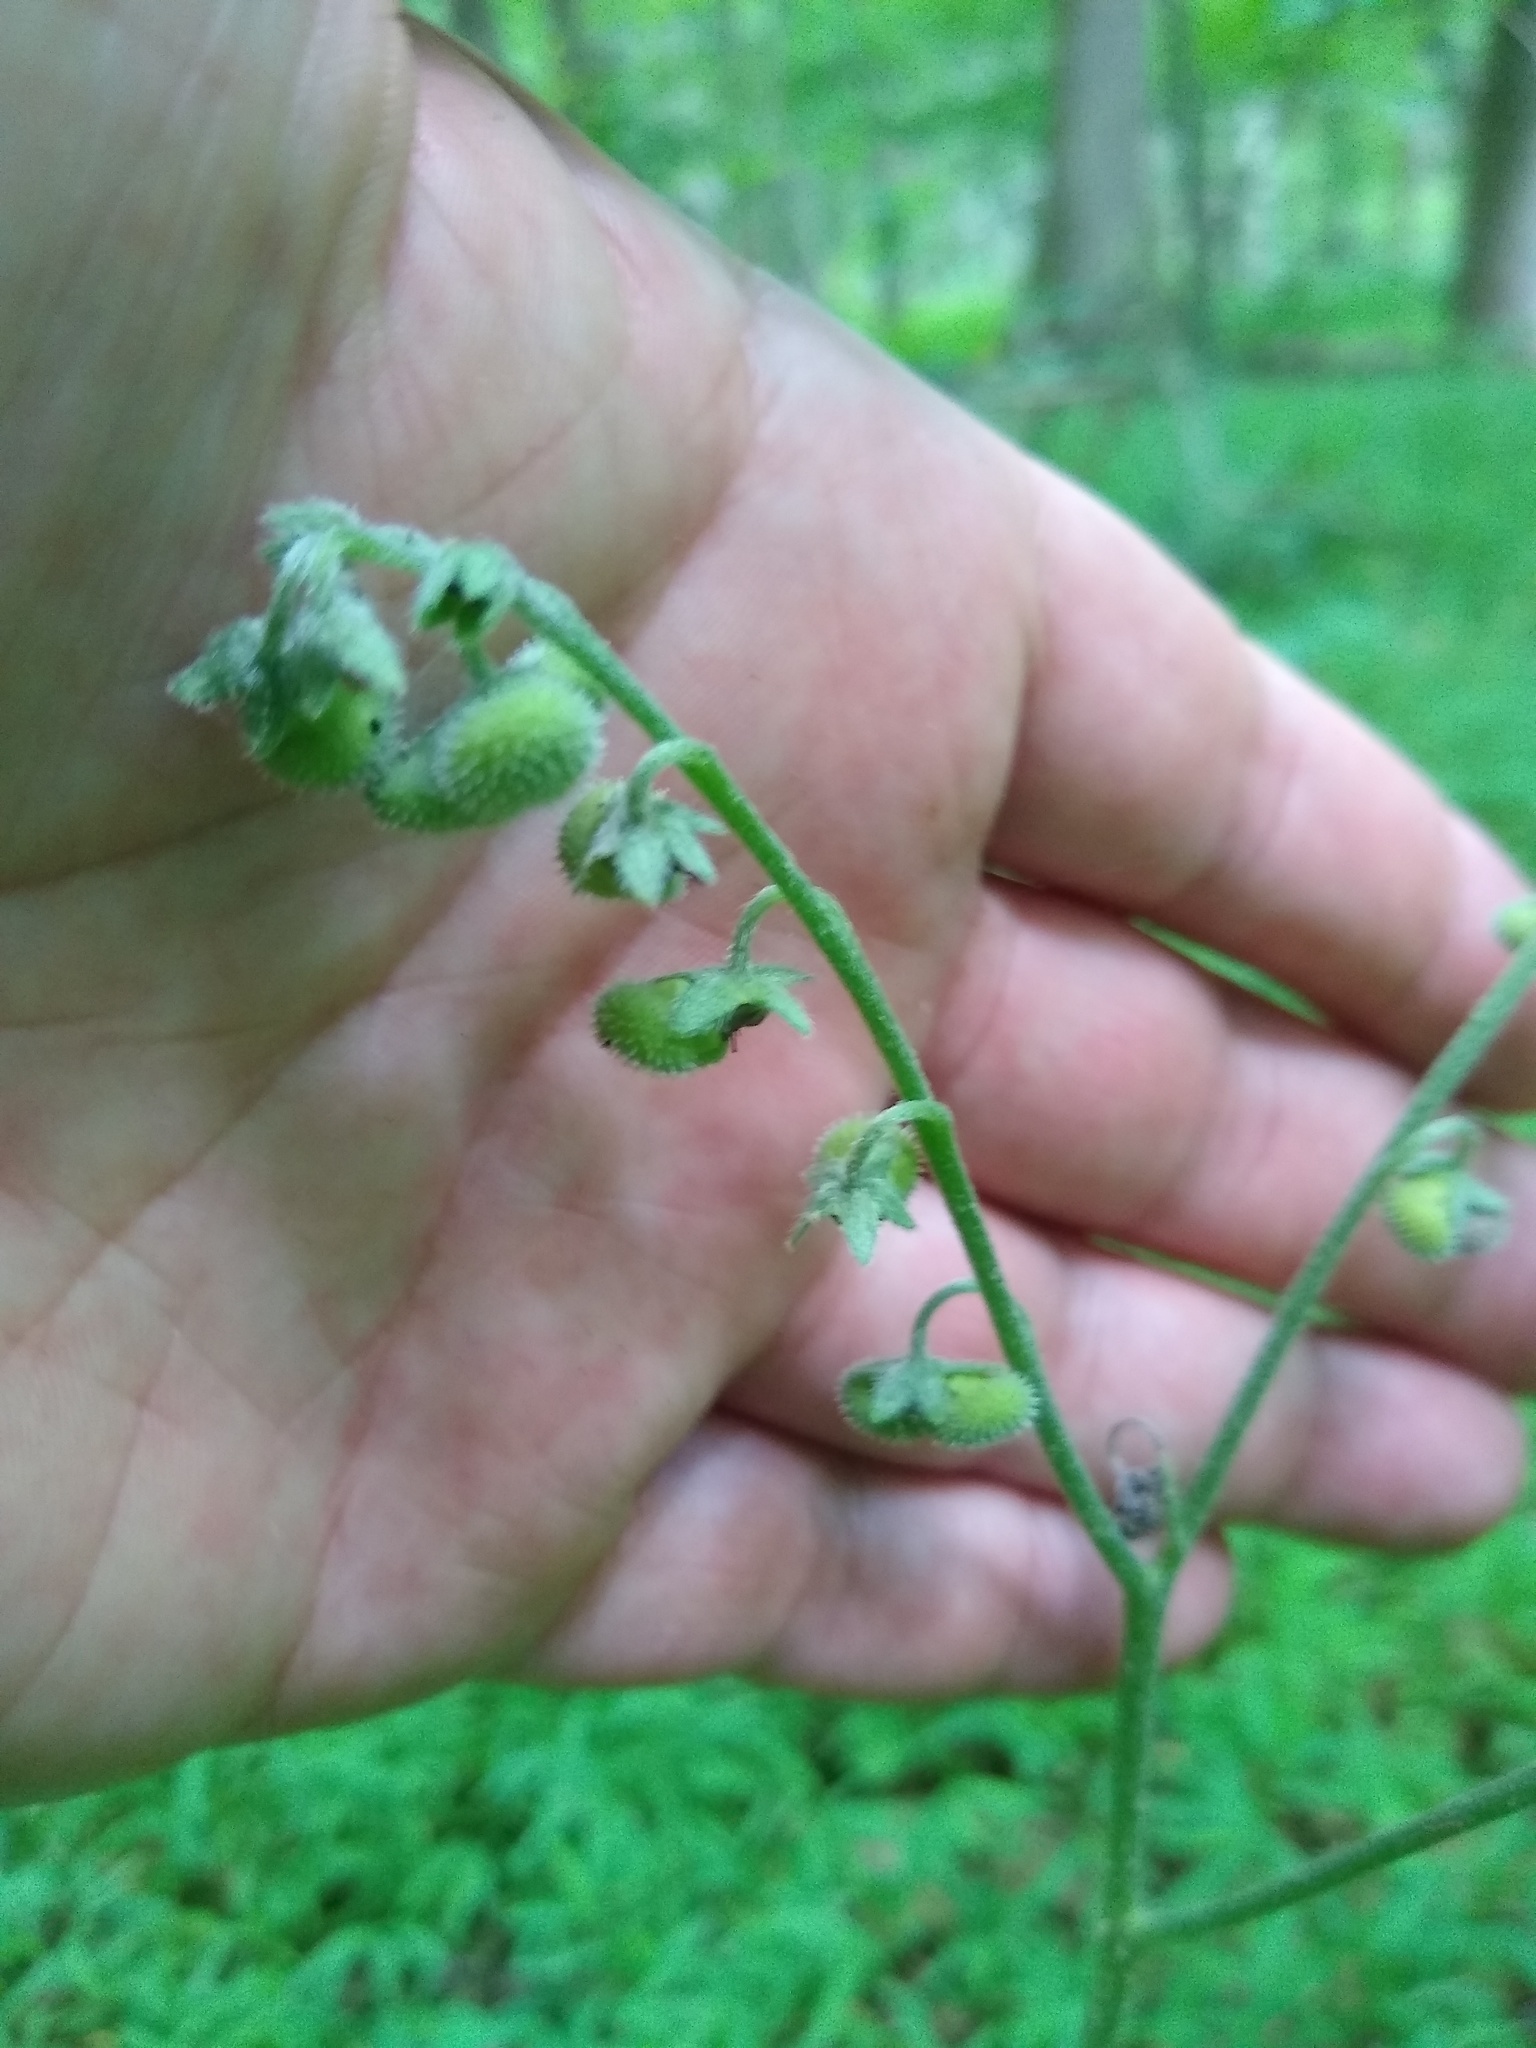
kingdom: Plantae
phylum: Tracheophyta
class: Magnoliopsida
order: Boraginales
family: Boraginaceae
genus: Andersonglossum
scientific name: Andersonglossum virginianum
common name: Wild comfrey
